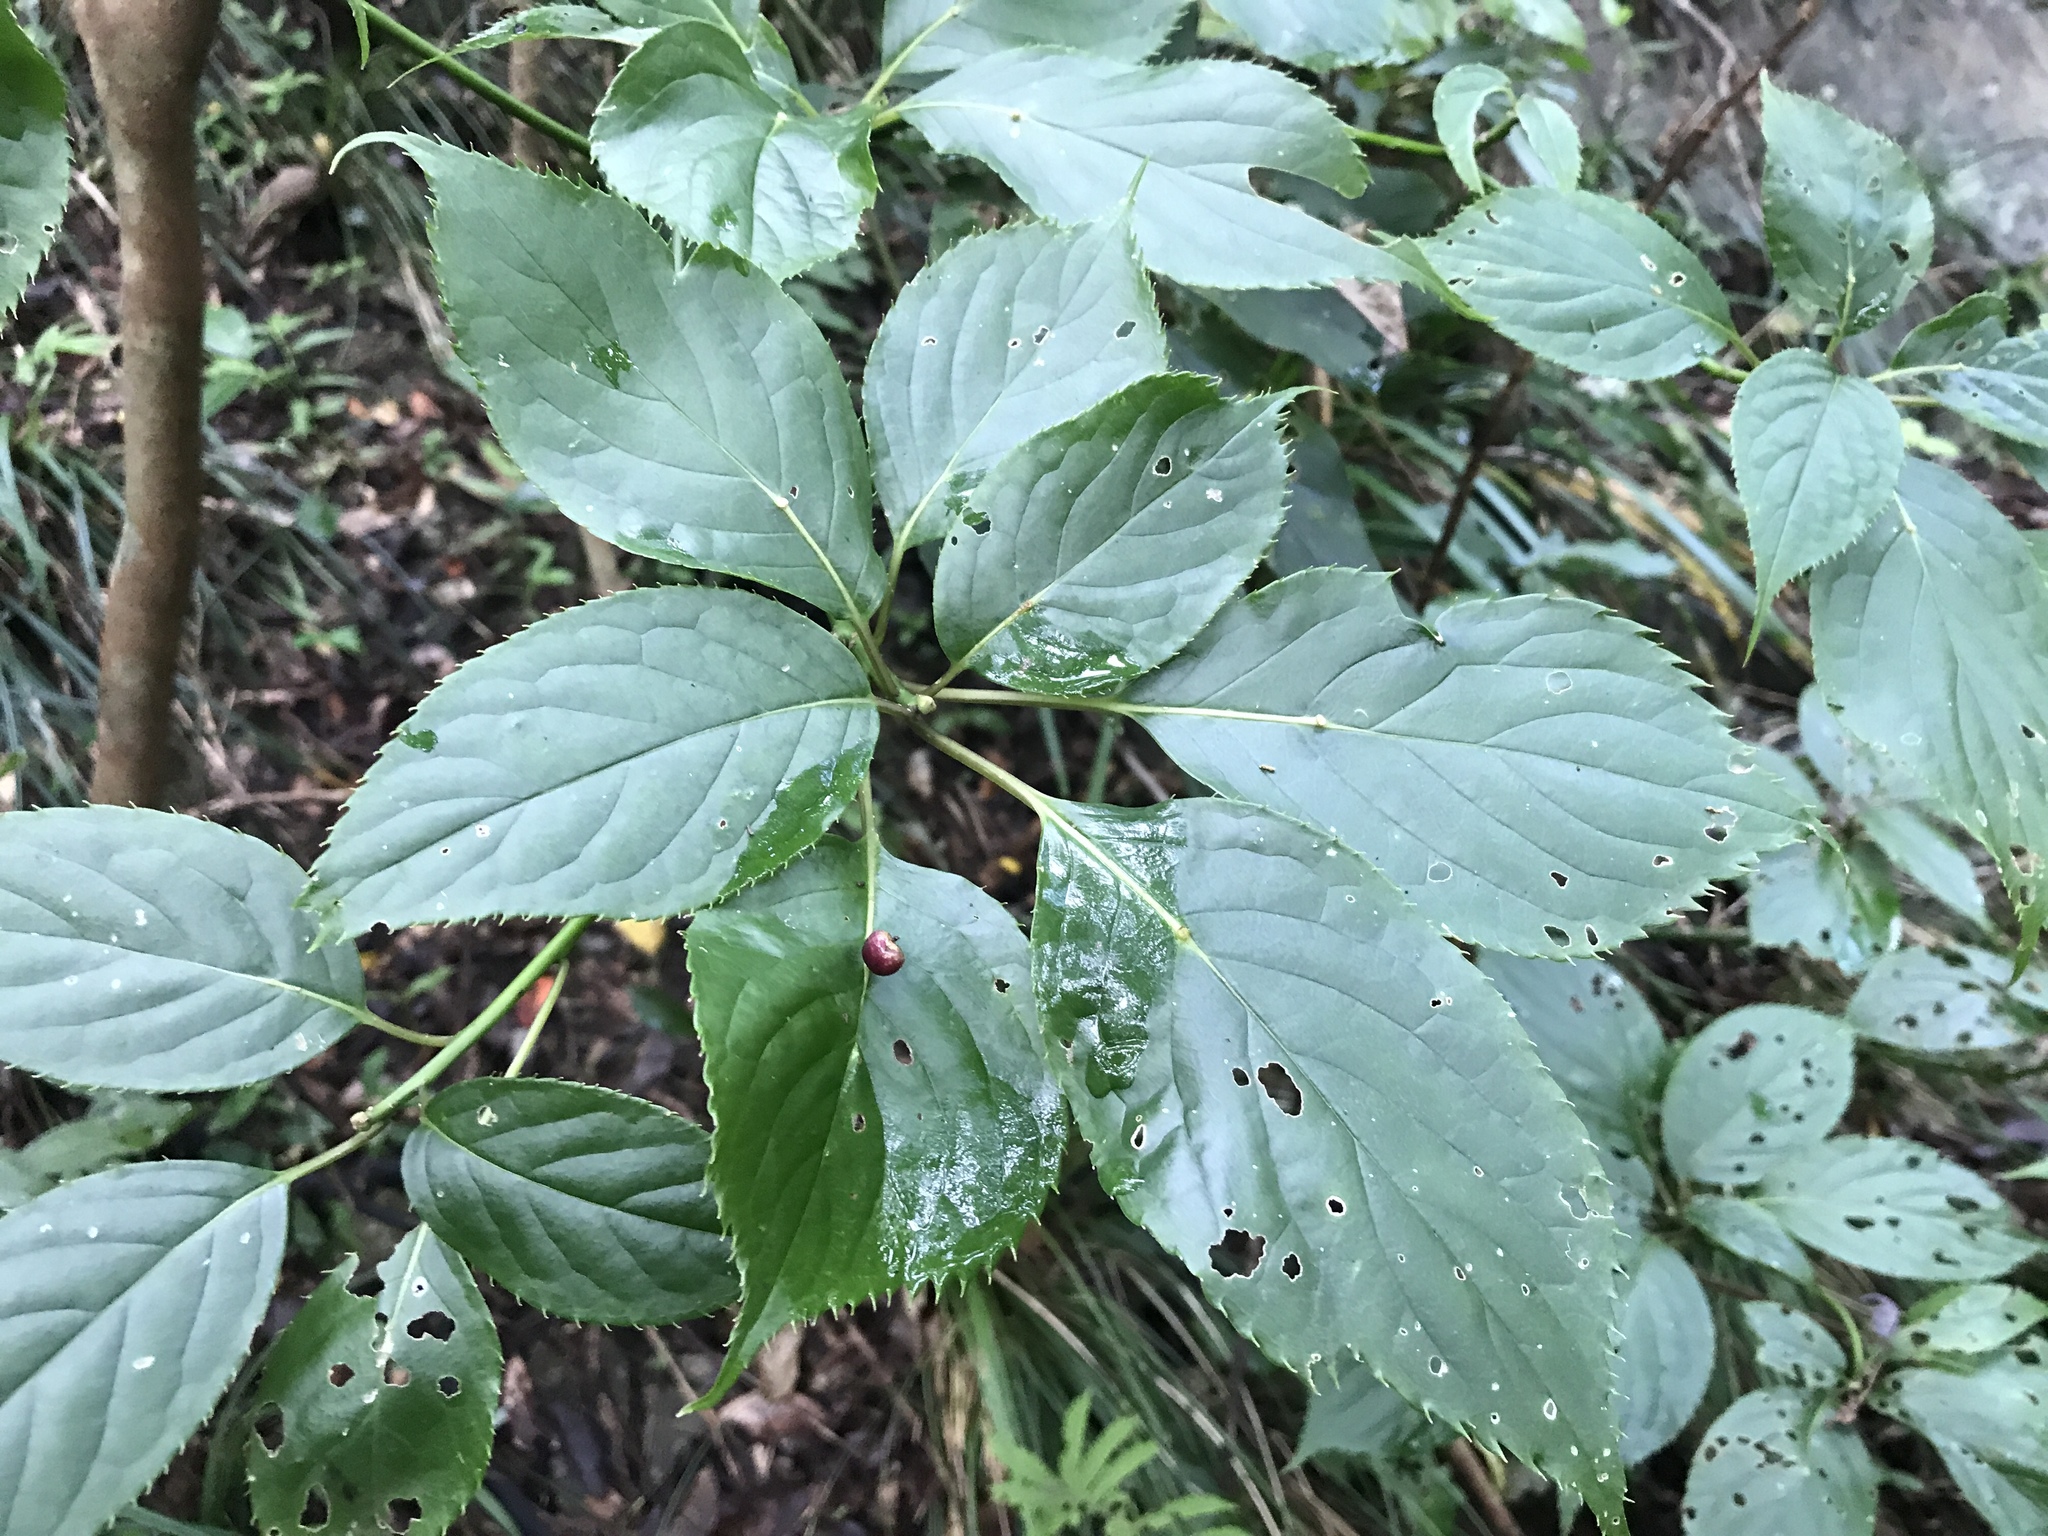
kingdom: Plantae
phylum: Tracheophyta
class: Magnoliopsida
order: Aquifoliales
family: Helwingiaceae
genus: Helwingia
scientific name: Helwingia japonica
